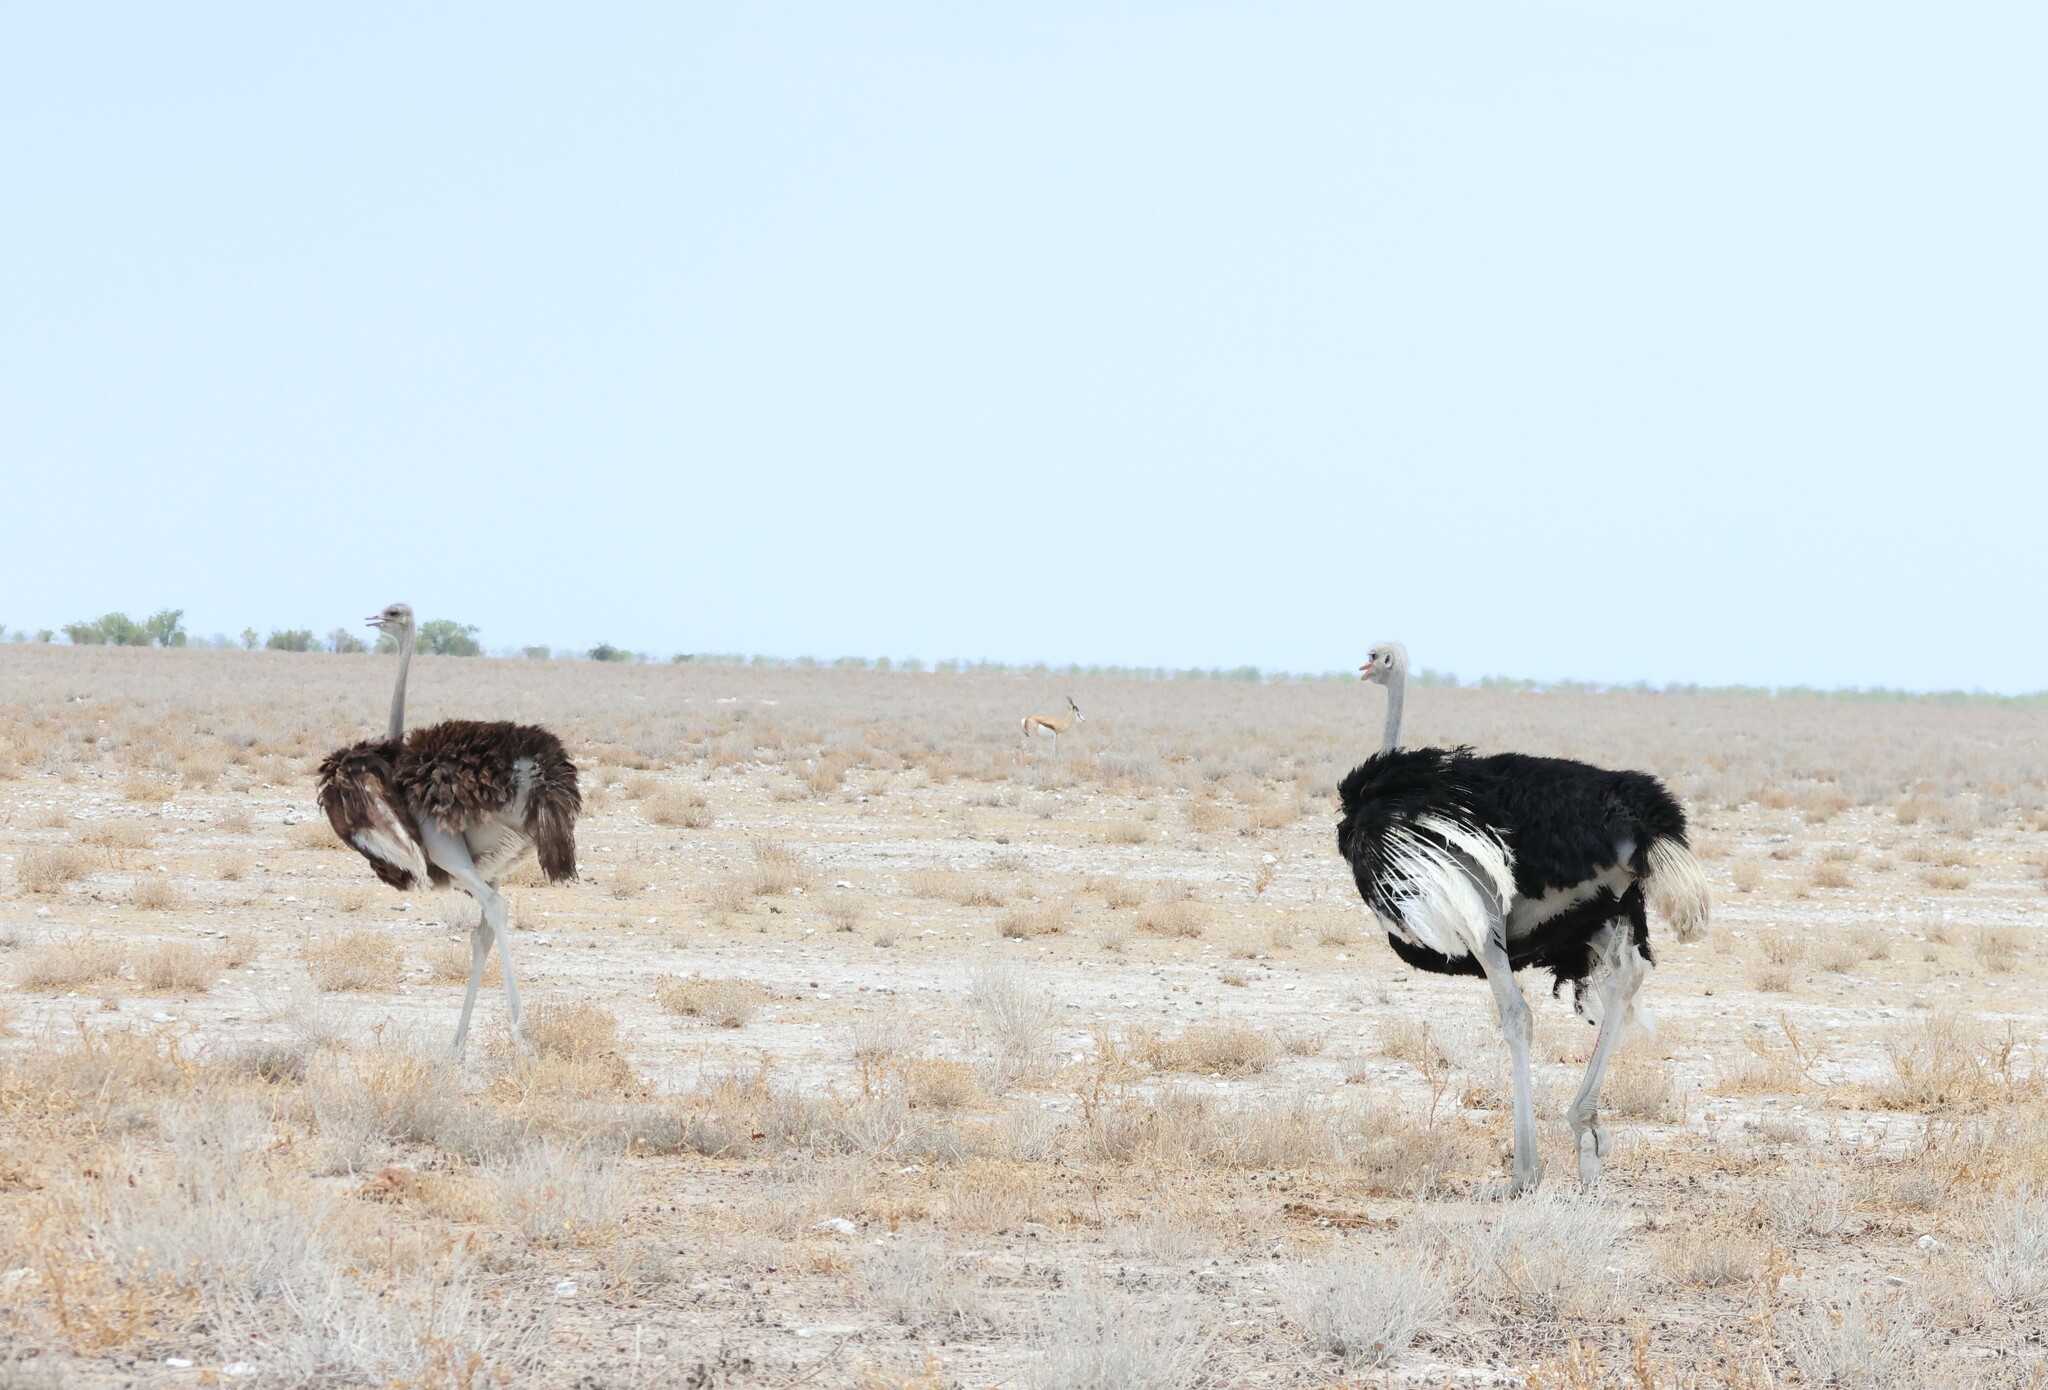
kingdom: Animalia
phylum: Chordata
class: Aves
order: Struthioniformes
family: Struthionidae
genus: Struthio
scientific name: Struthio camelus
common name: Common ostrich
